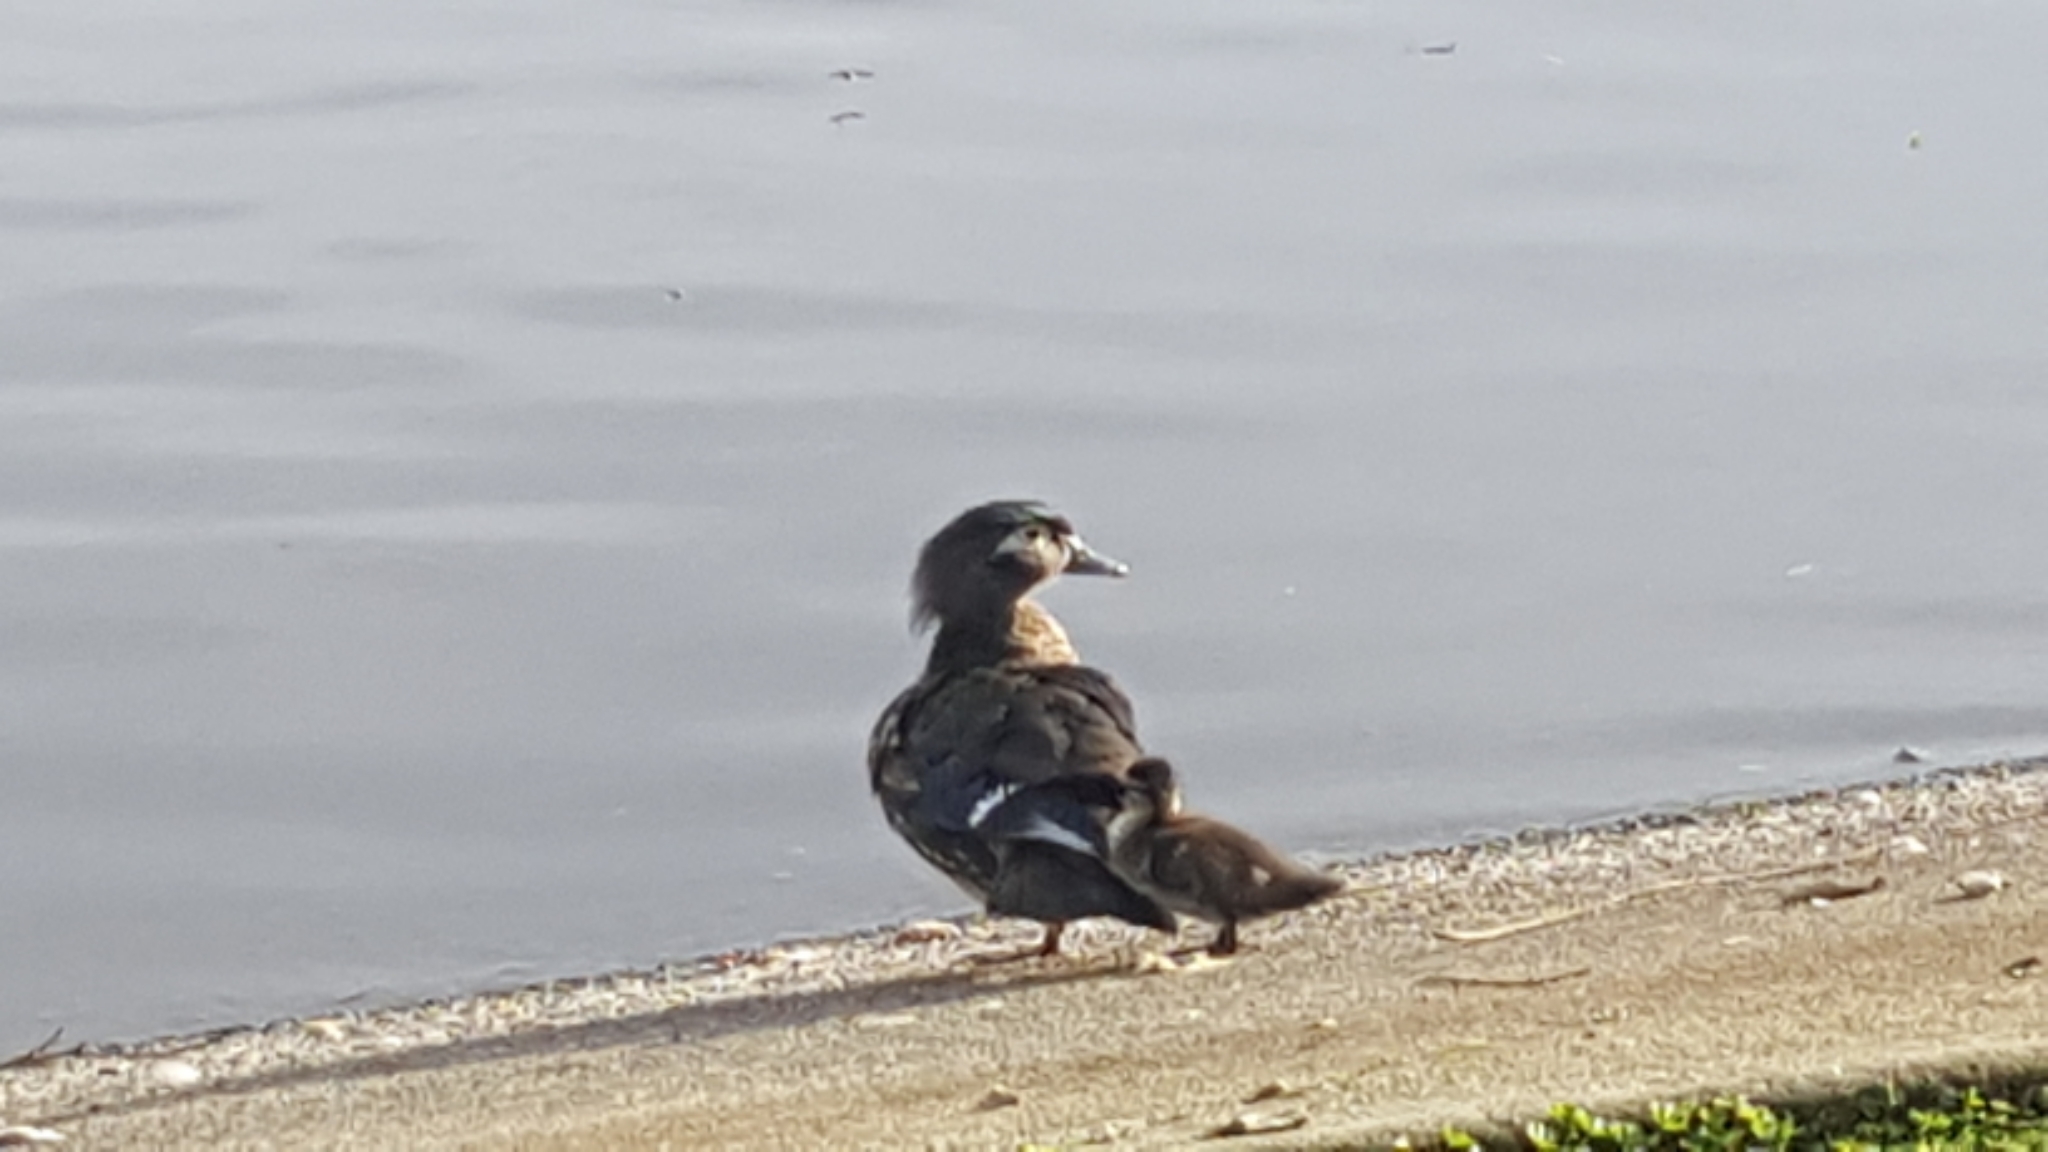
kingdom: Animalia
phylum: Chordata
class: Aves
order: Anseriformes
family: Anatidae
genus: Aix
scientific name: Aix sponsa
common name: Wood duck
